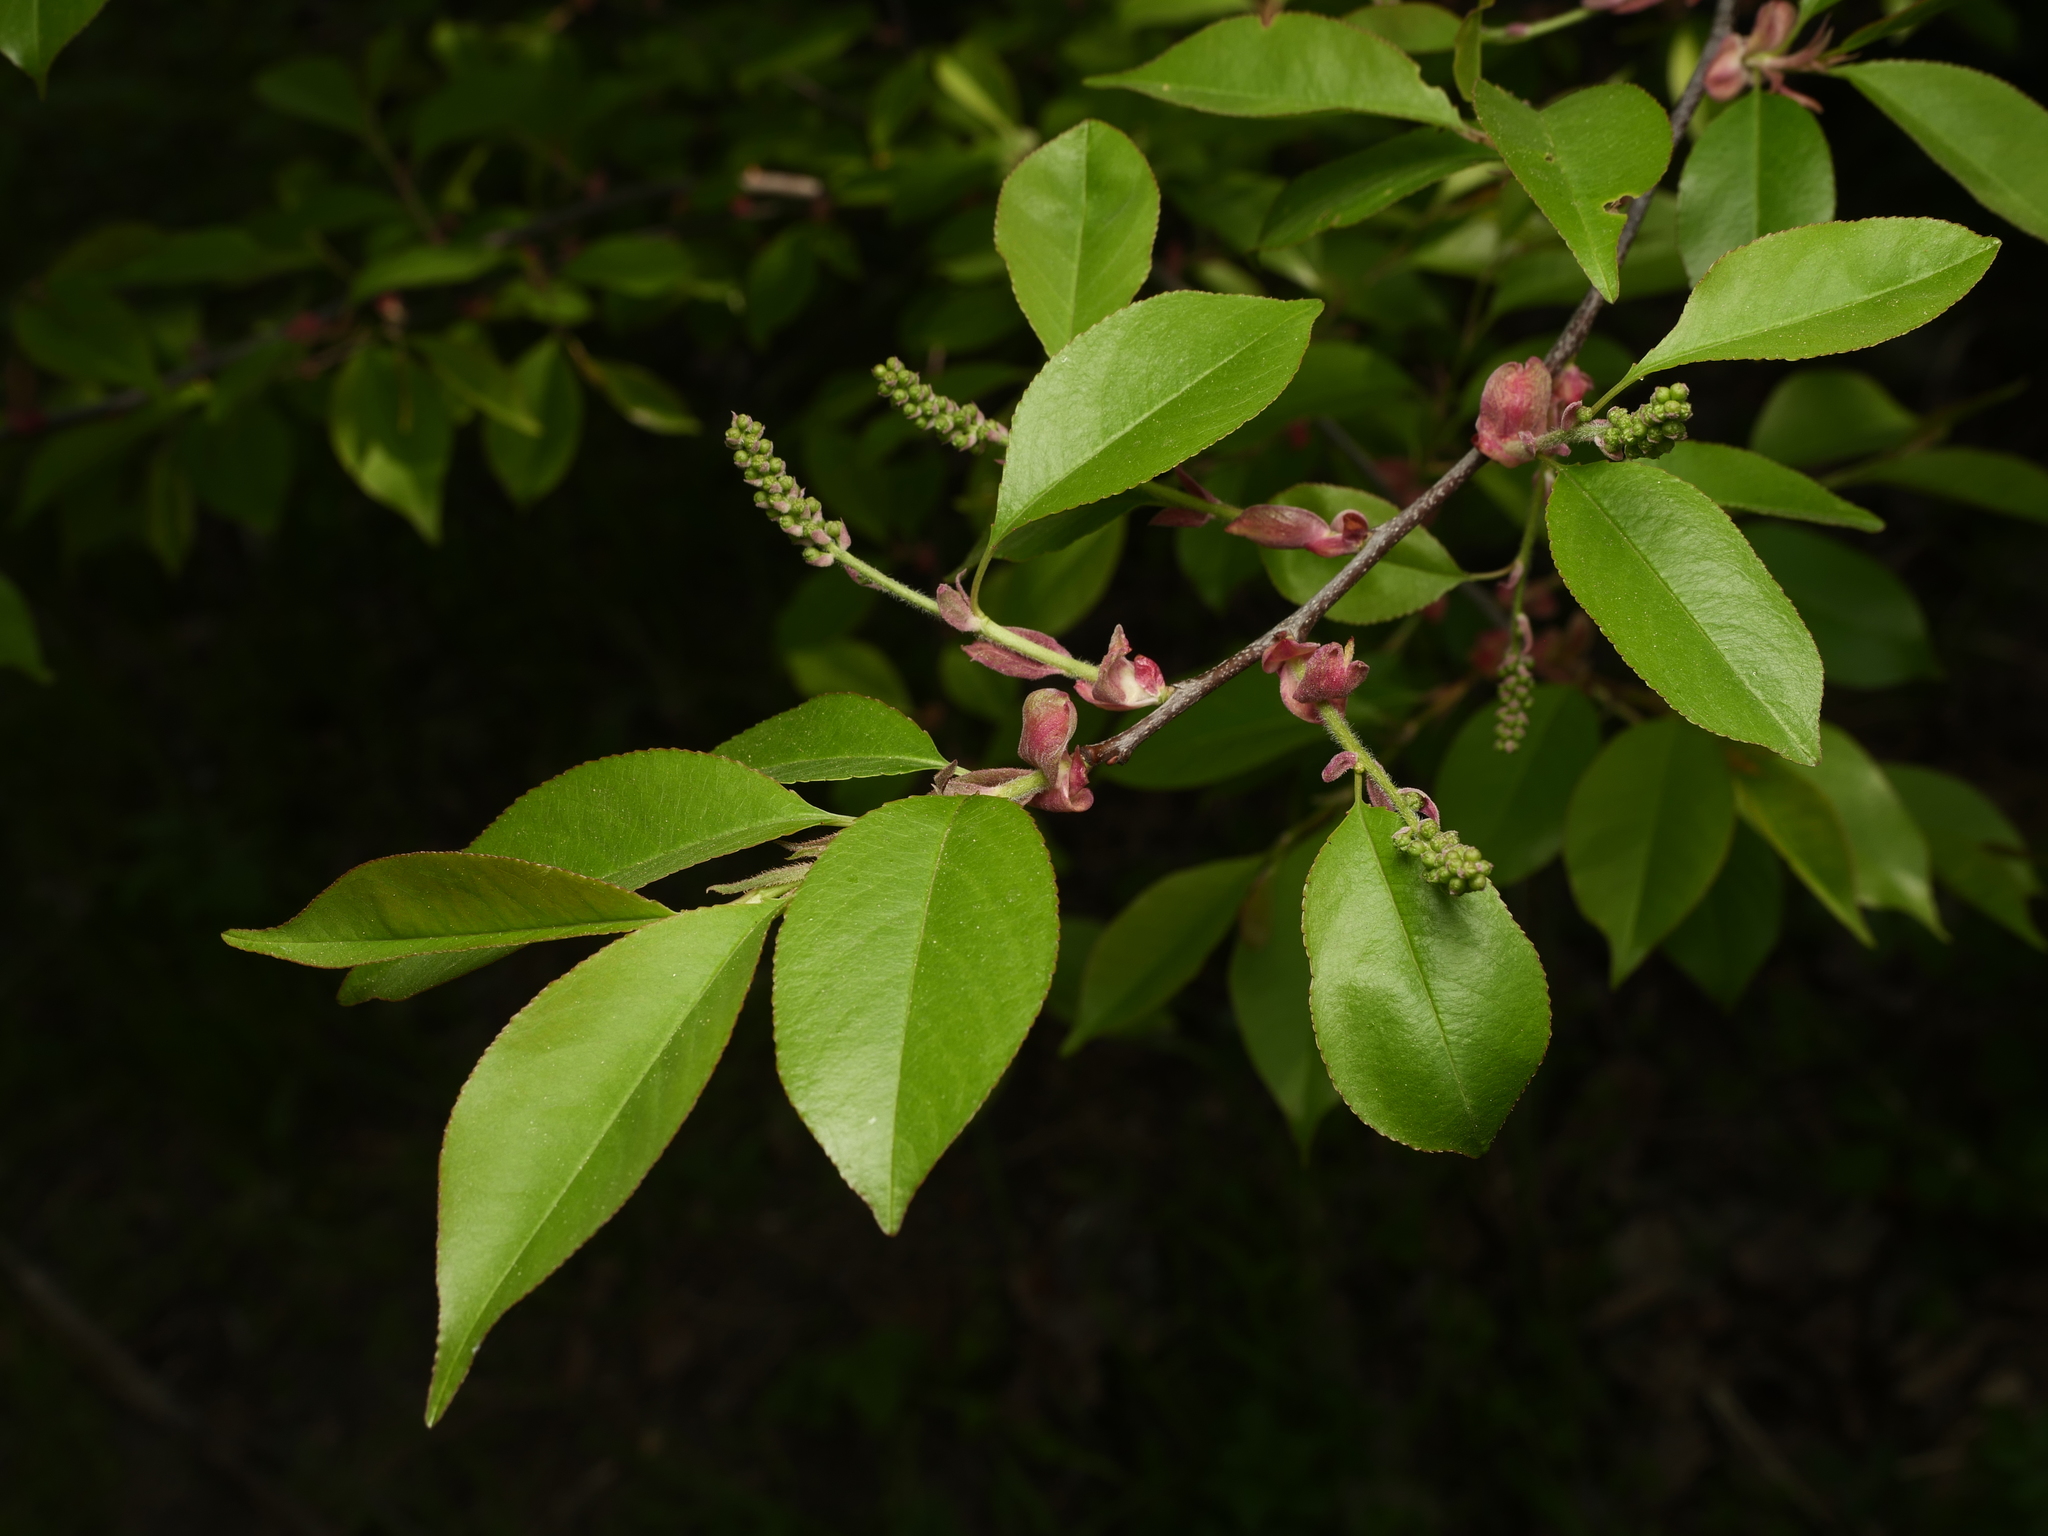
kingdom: Plantae
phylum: Tracheophyta
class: Magnoliopsida
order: Rosales
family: Rosaceae
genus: Prunus
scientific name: Prunus serotina
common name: Black cherry
